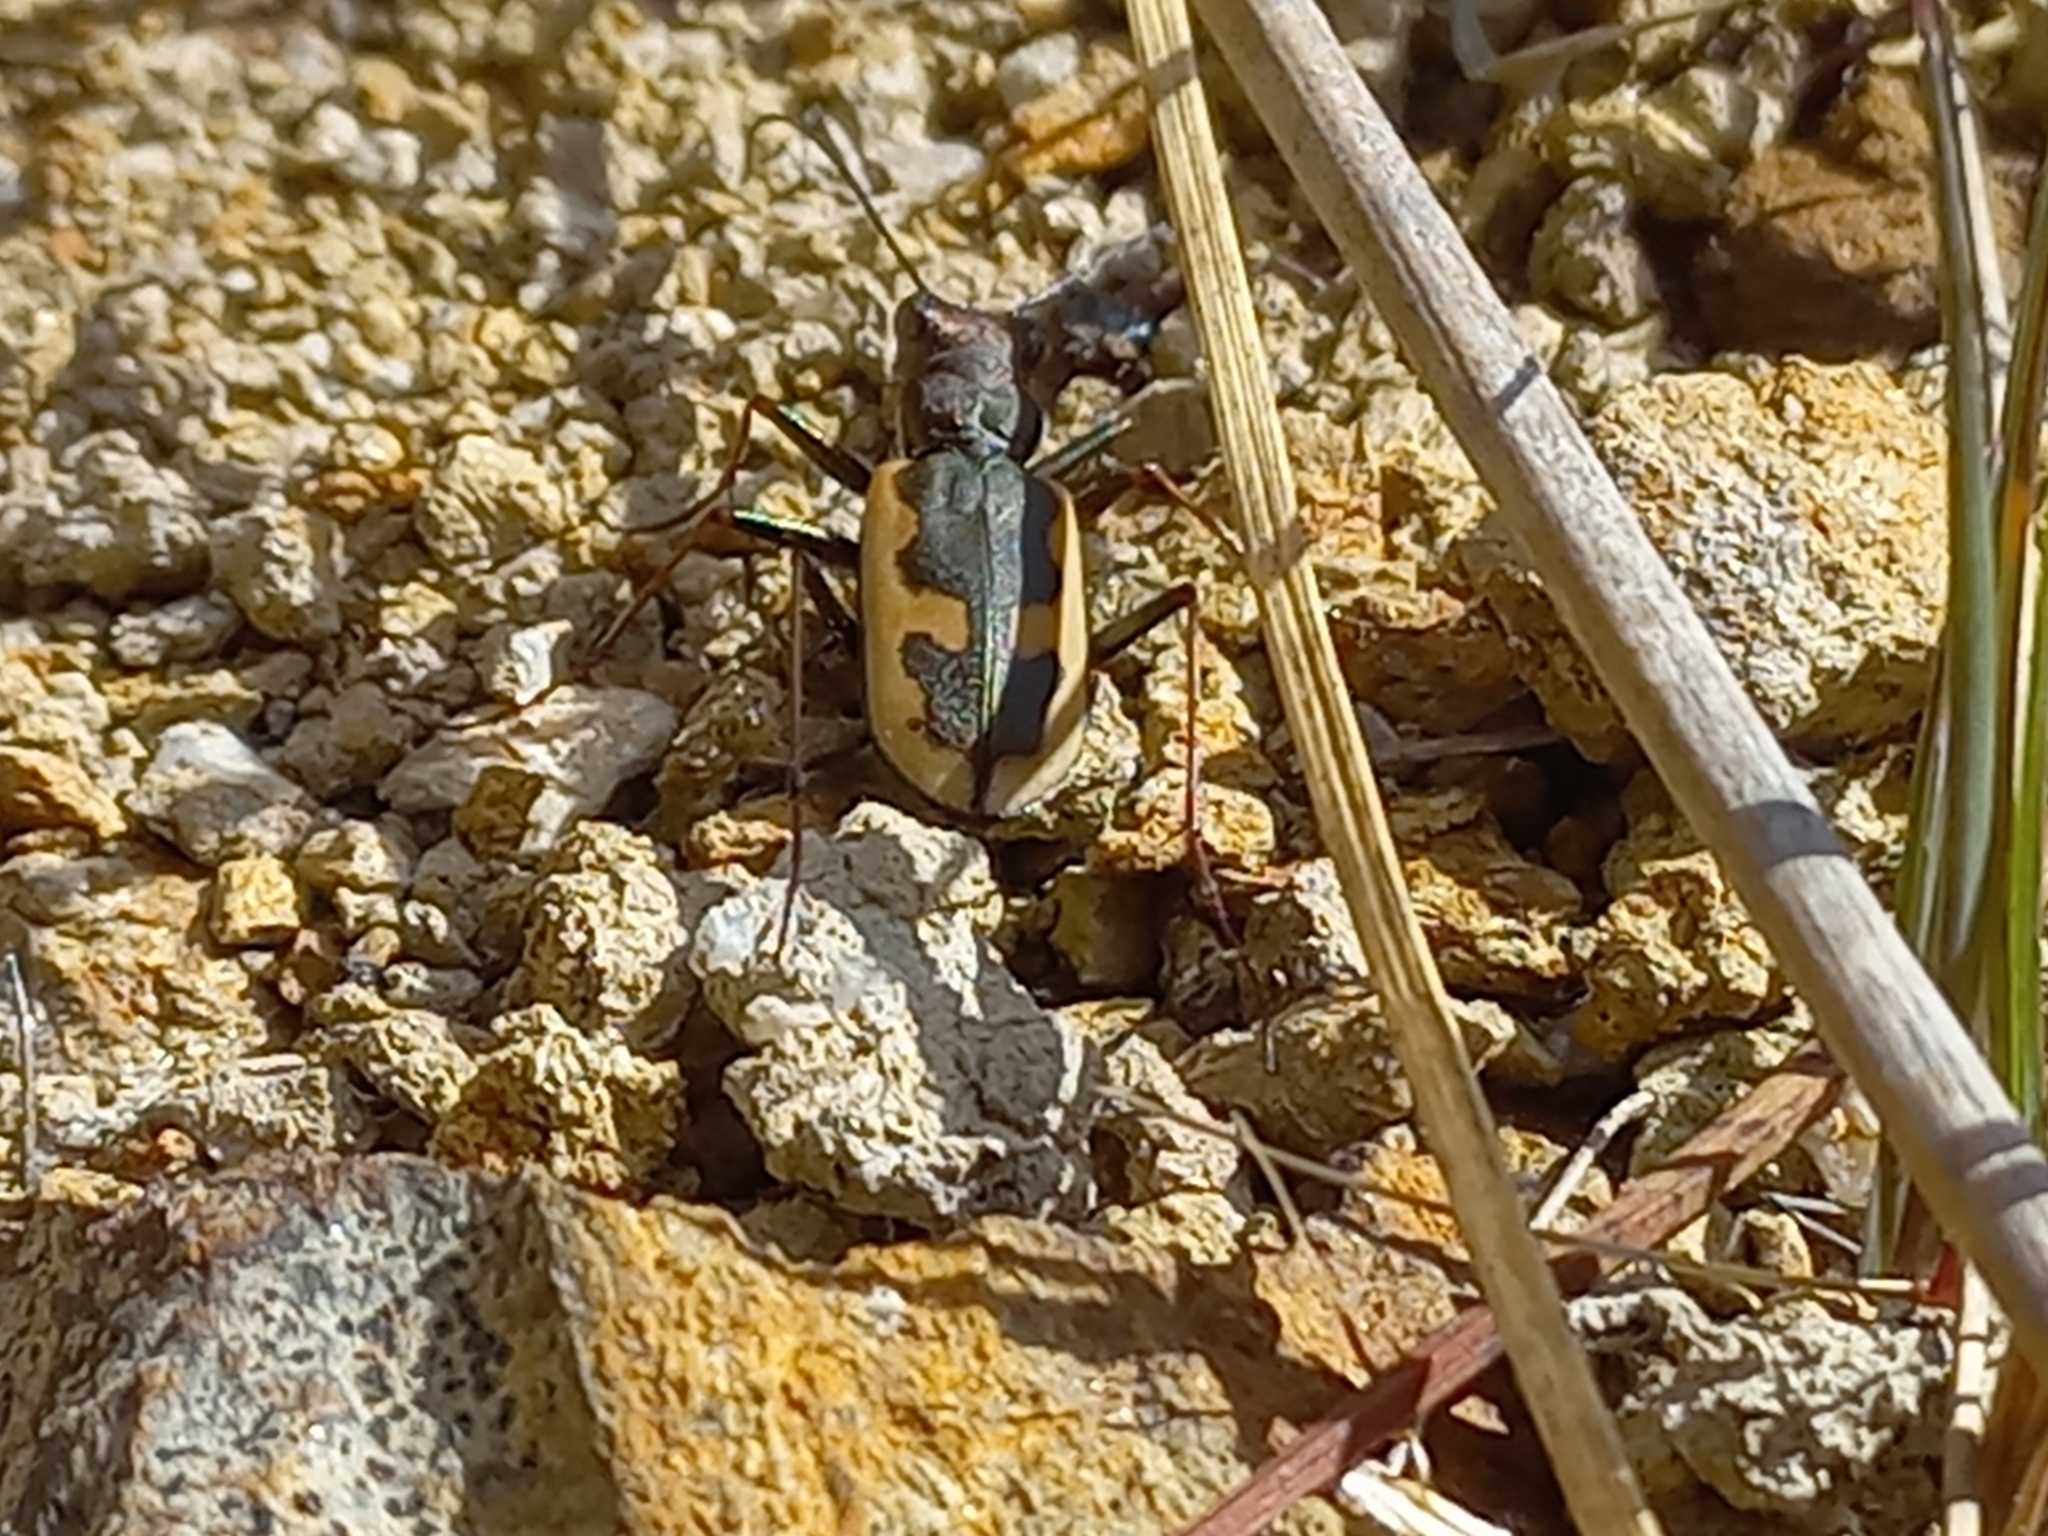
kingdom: Animalia
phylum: Arthropoda
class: Insecta
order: Coleoptera
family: Carabidae
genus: Neocicindela
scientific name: Neocicindela latecincta
